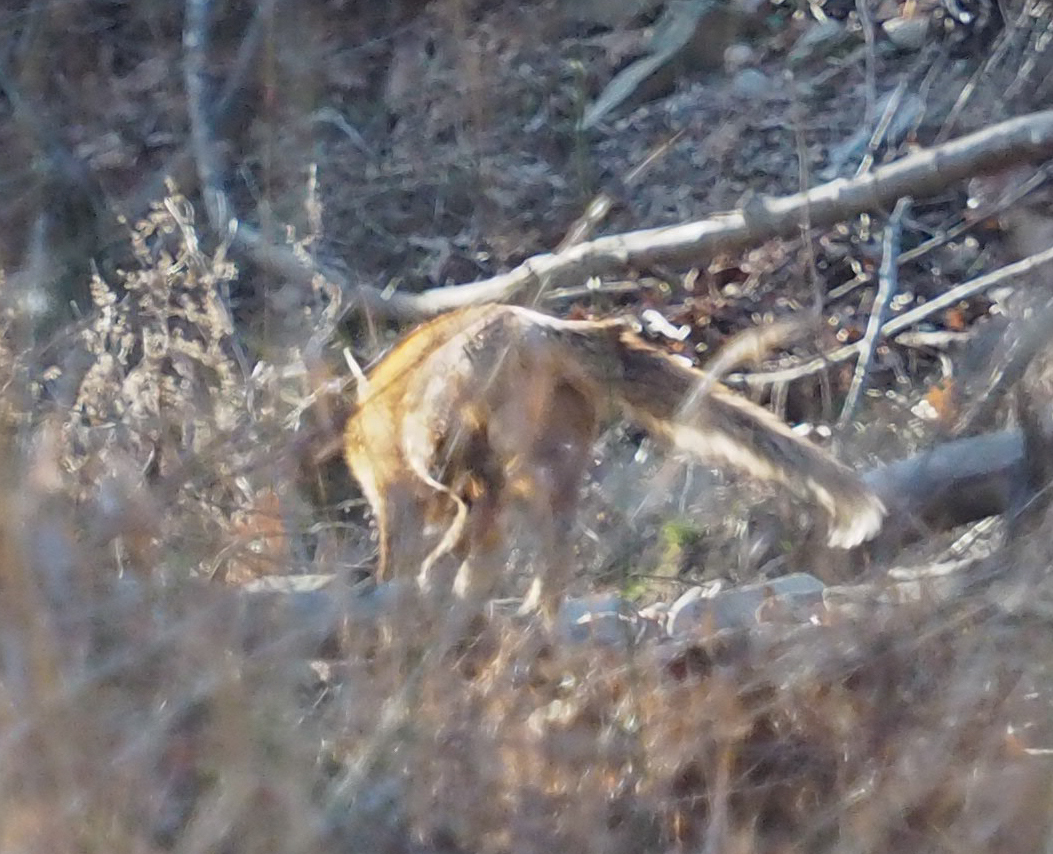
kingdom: Animalia
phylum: Chordata
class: Mammalia
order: Carnivora
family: Canidae
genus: Vulpes
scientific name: Vulpes vulpes
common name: Red fox
